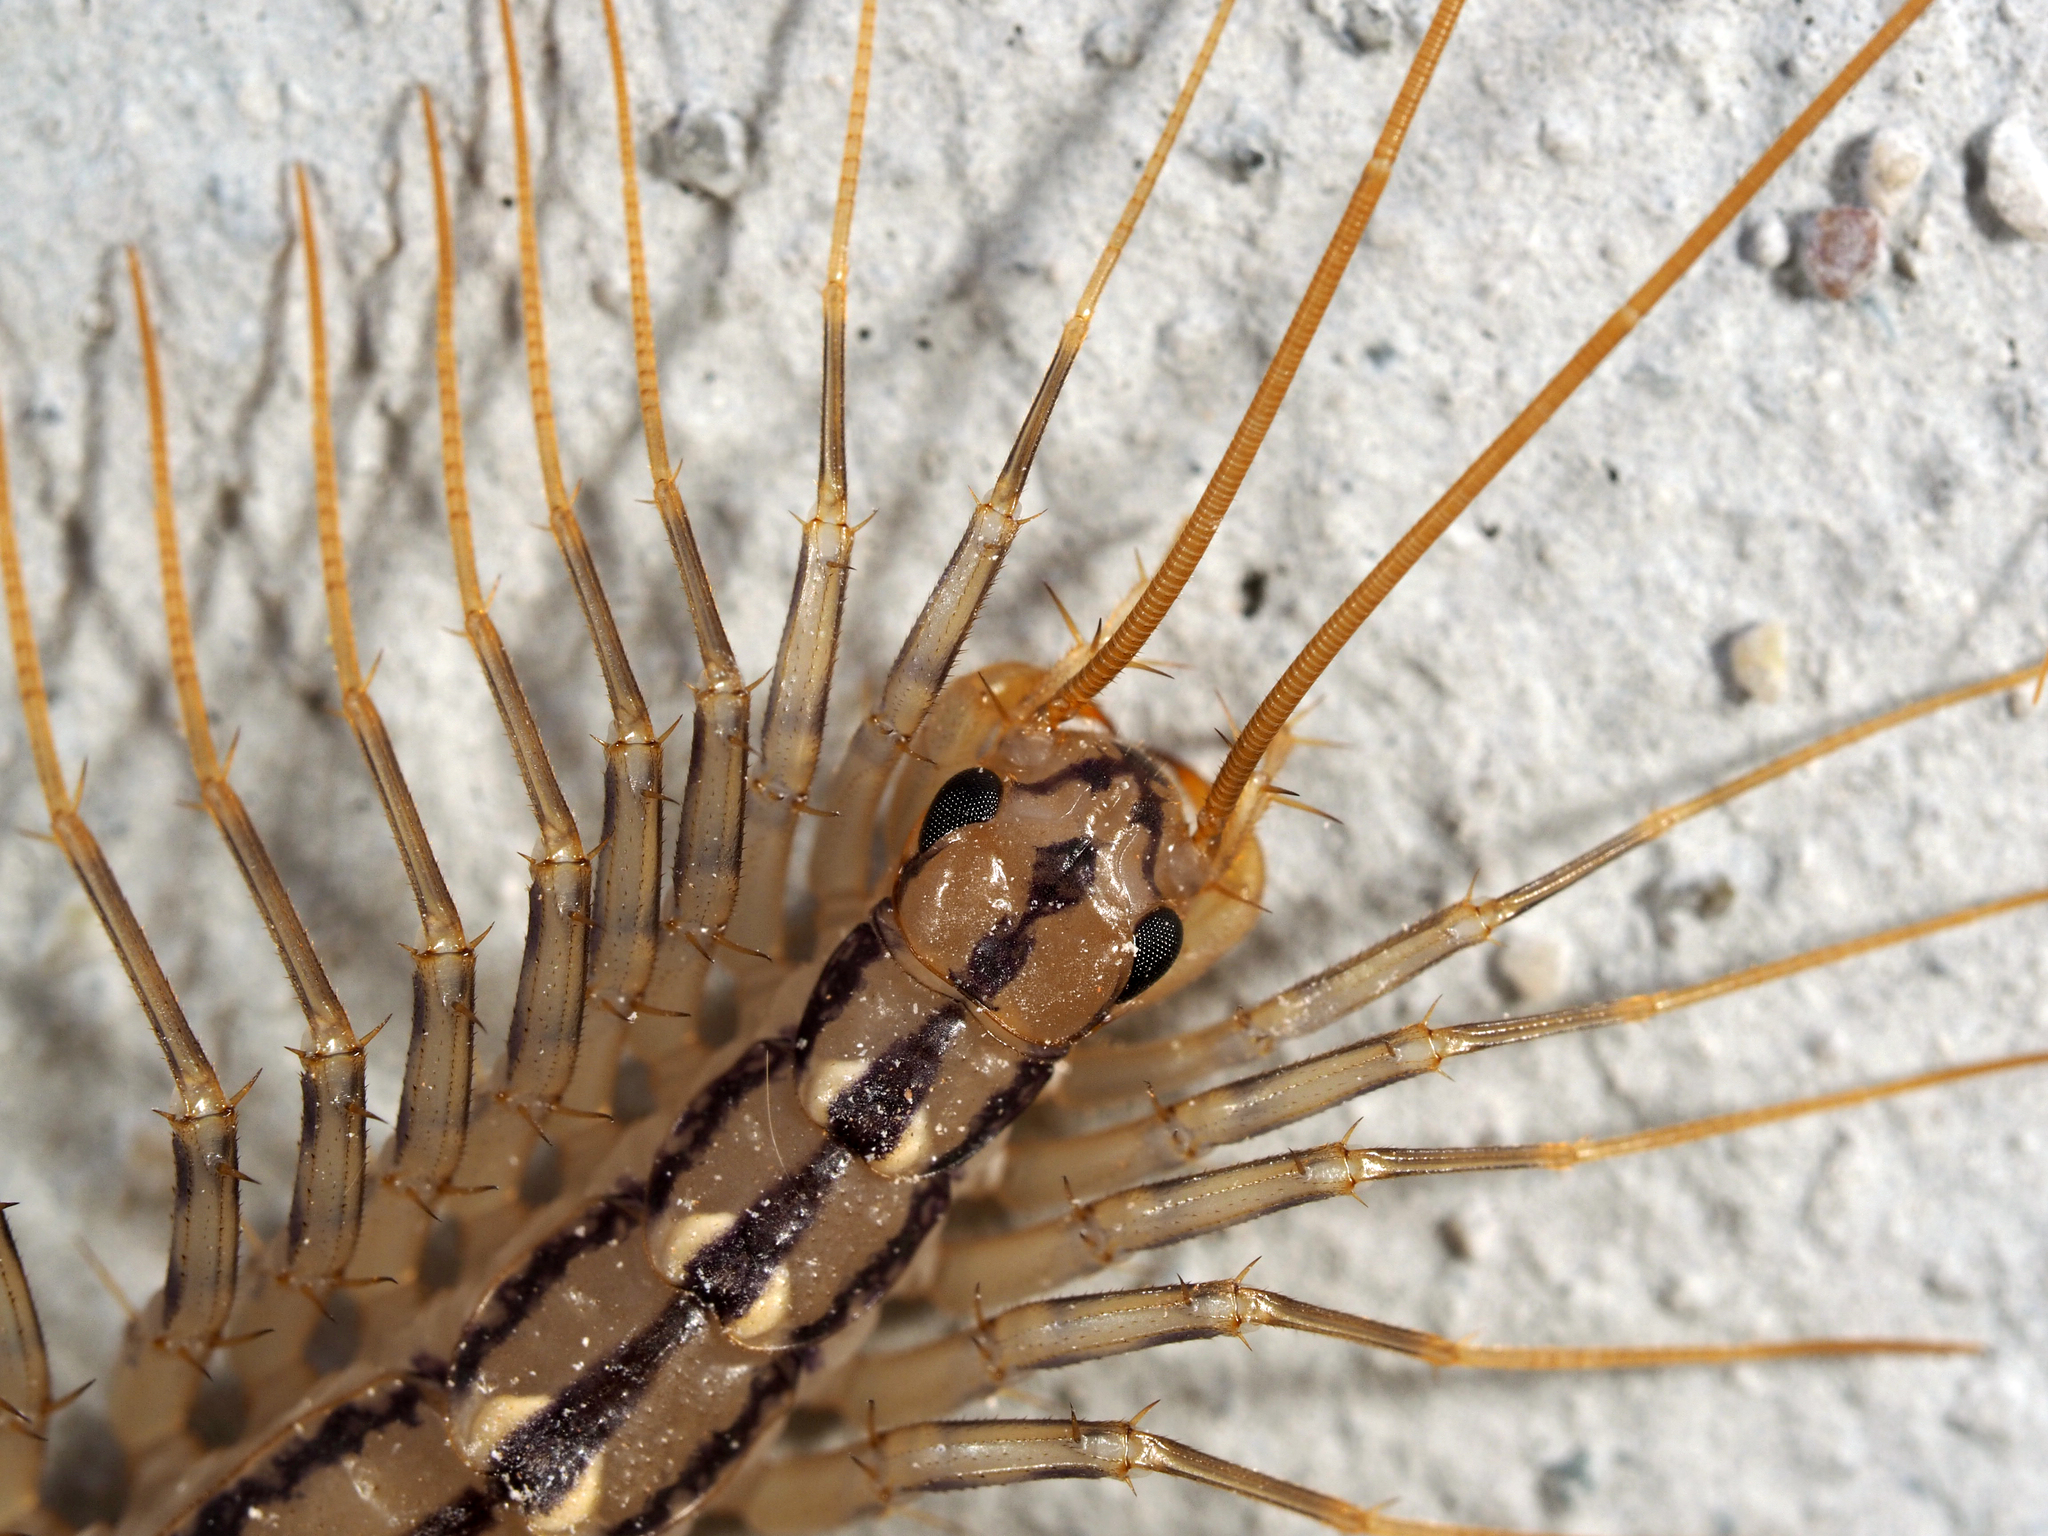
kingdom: Animalia
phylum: Arthropoda
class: Chilopoda
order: Scutigeromorpha
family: Scutigeridae
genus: Scutigera
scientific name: Scutigera coleoptrata
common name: House centipede
